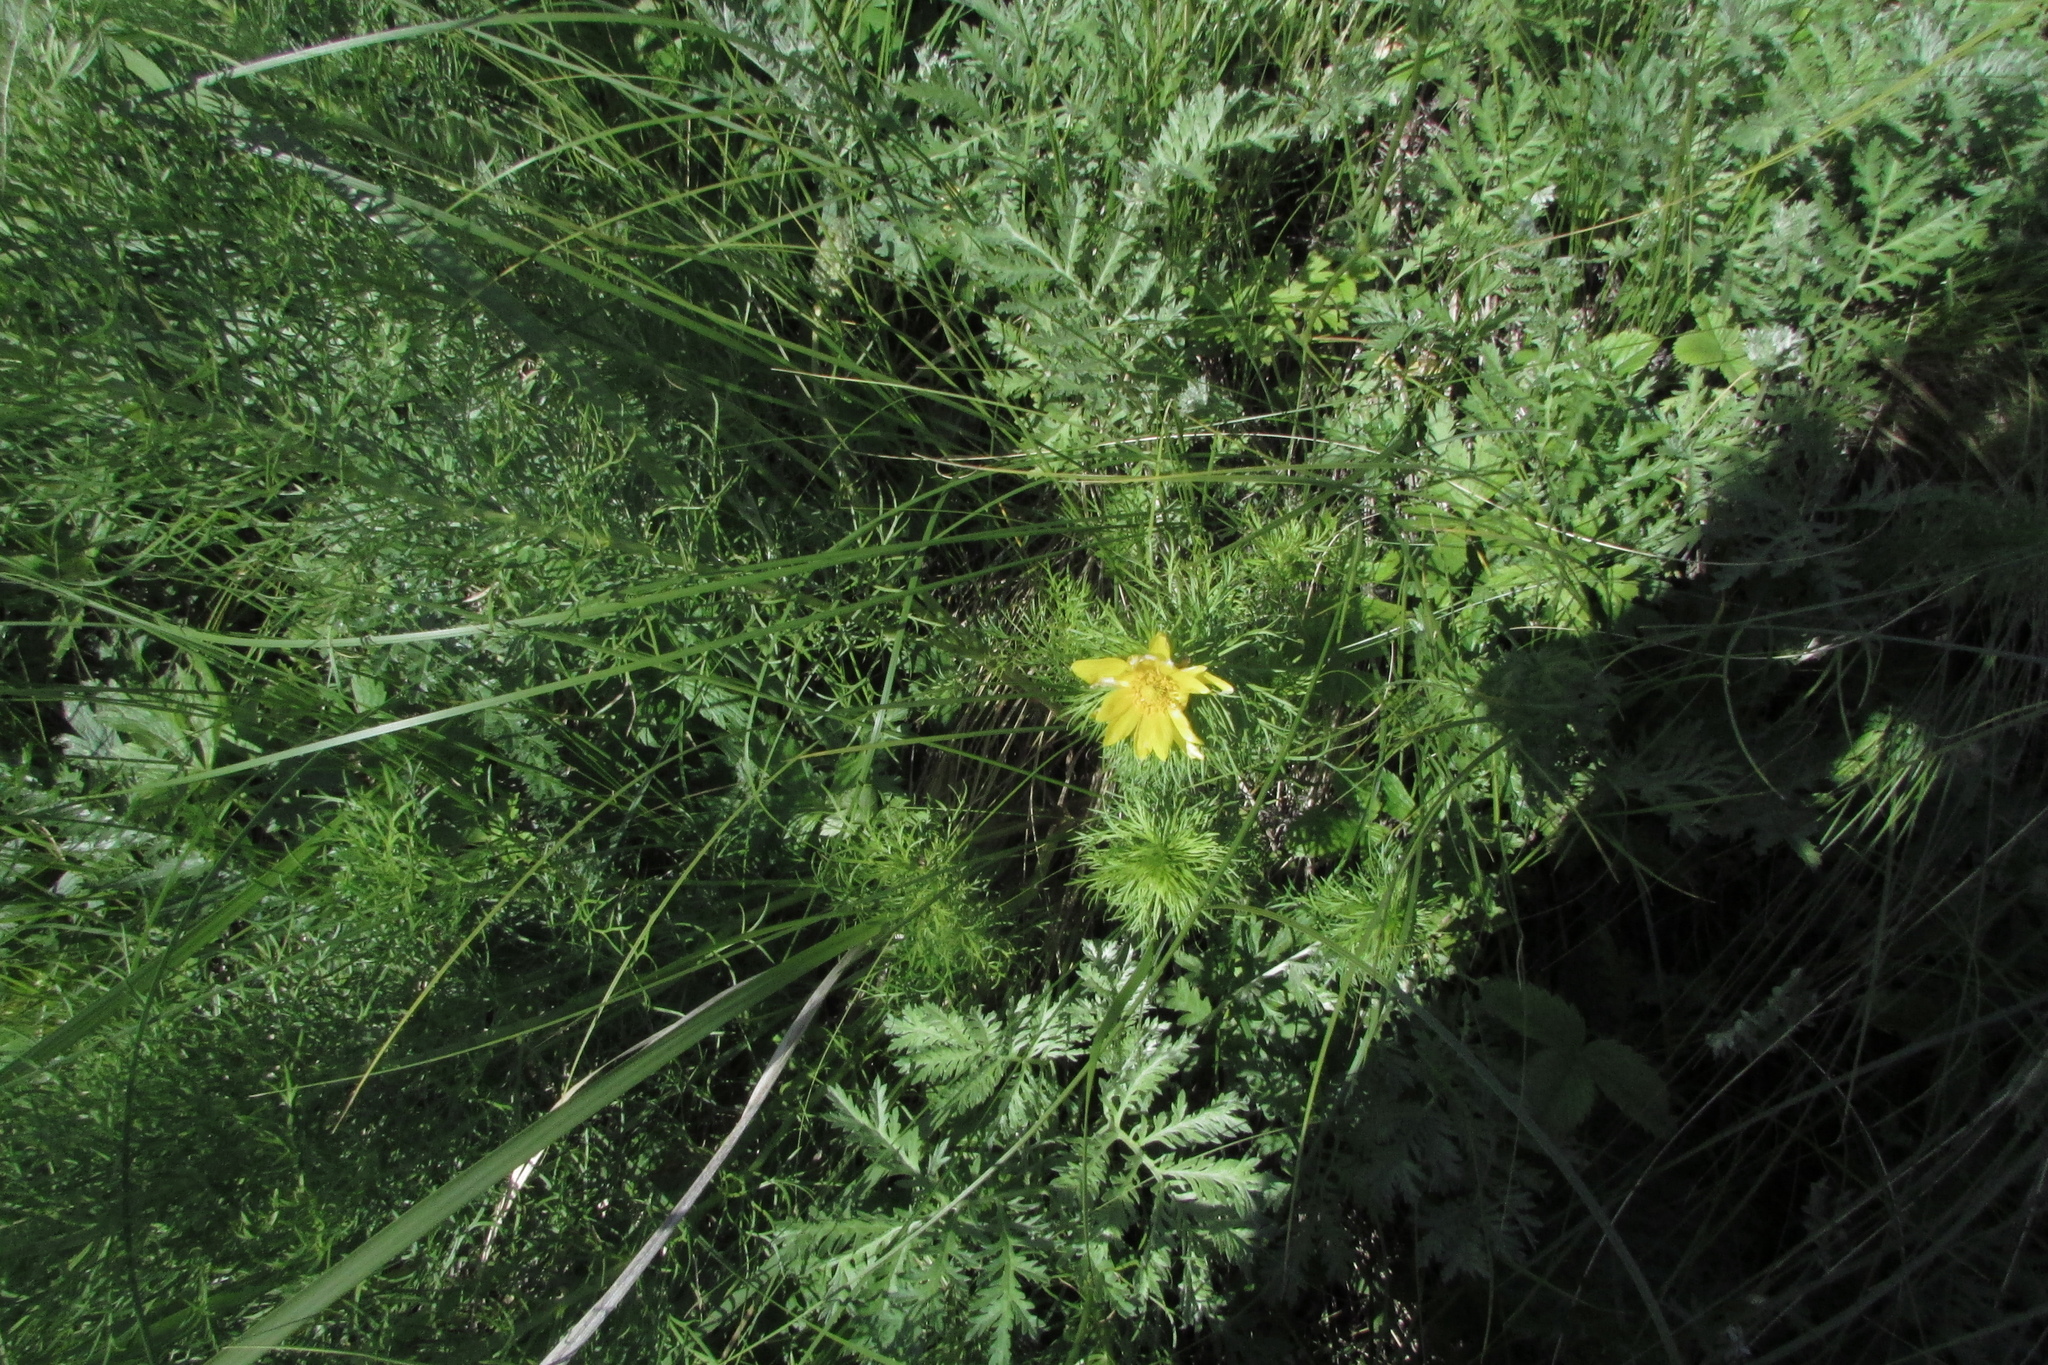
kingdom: Plantae
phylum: Tracheophyta
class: Magnoliopsida
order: Ranunculales
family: Ranunculaceae
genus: Adonis
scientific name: Adonis vernalis
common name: Yellow pheasants-eye
